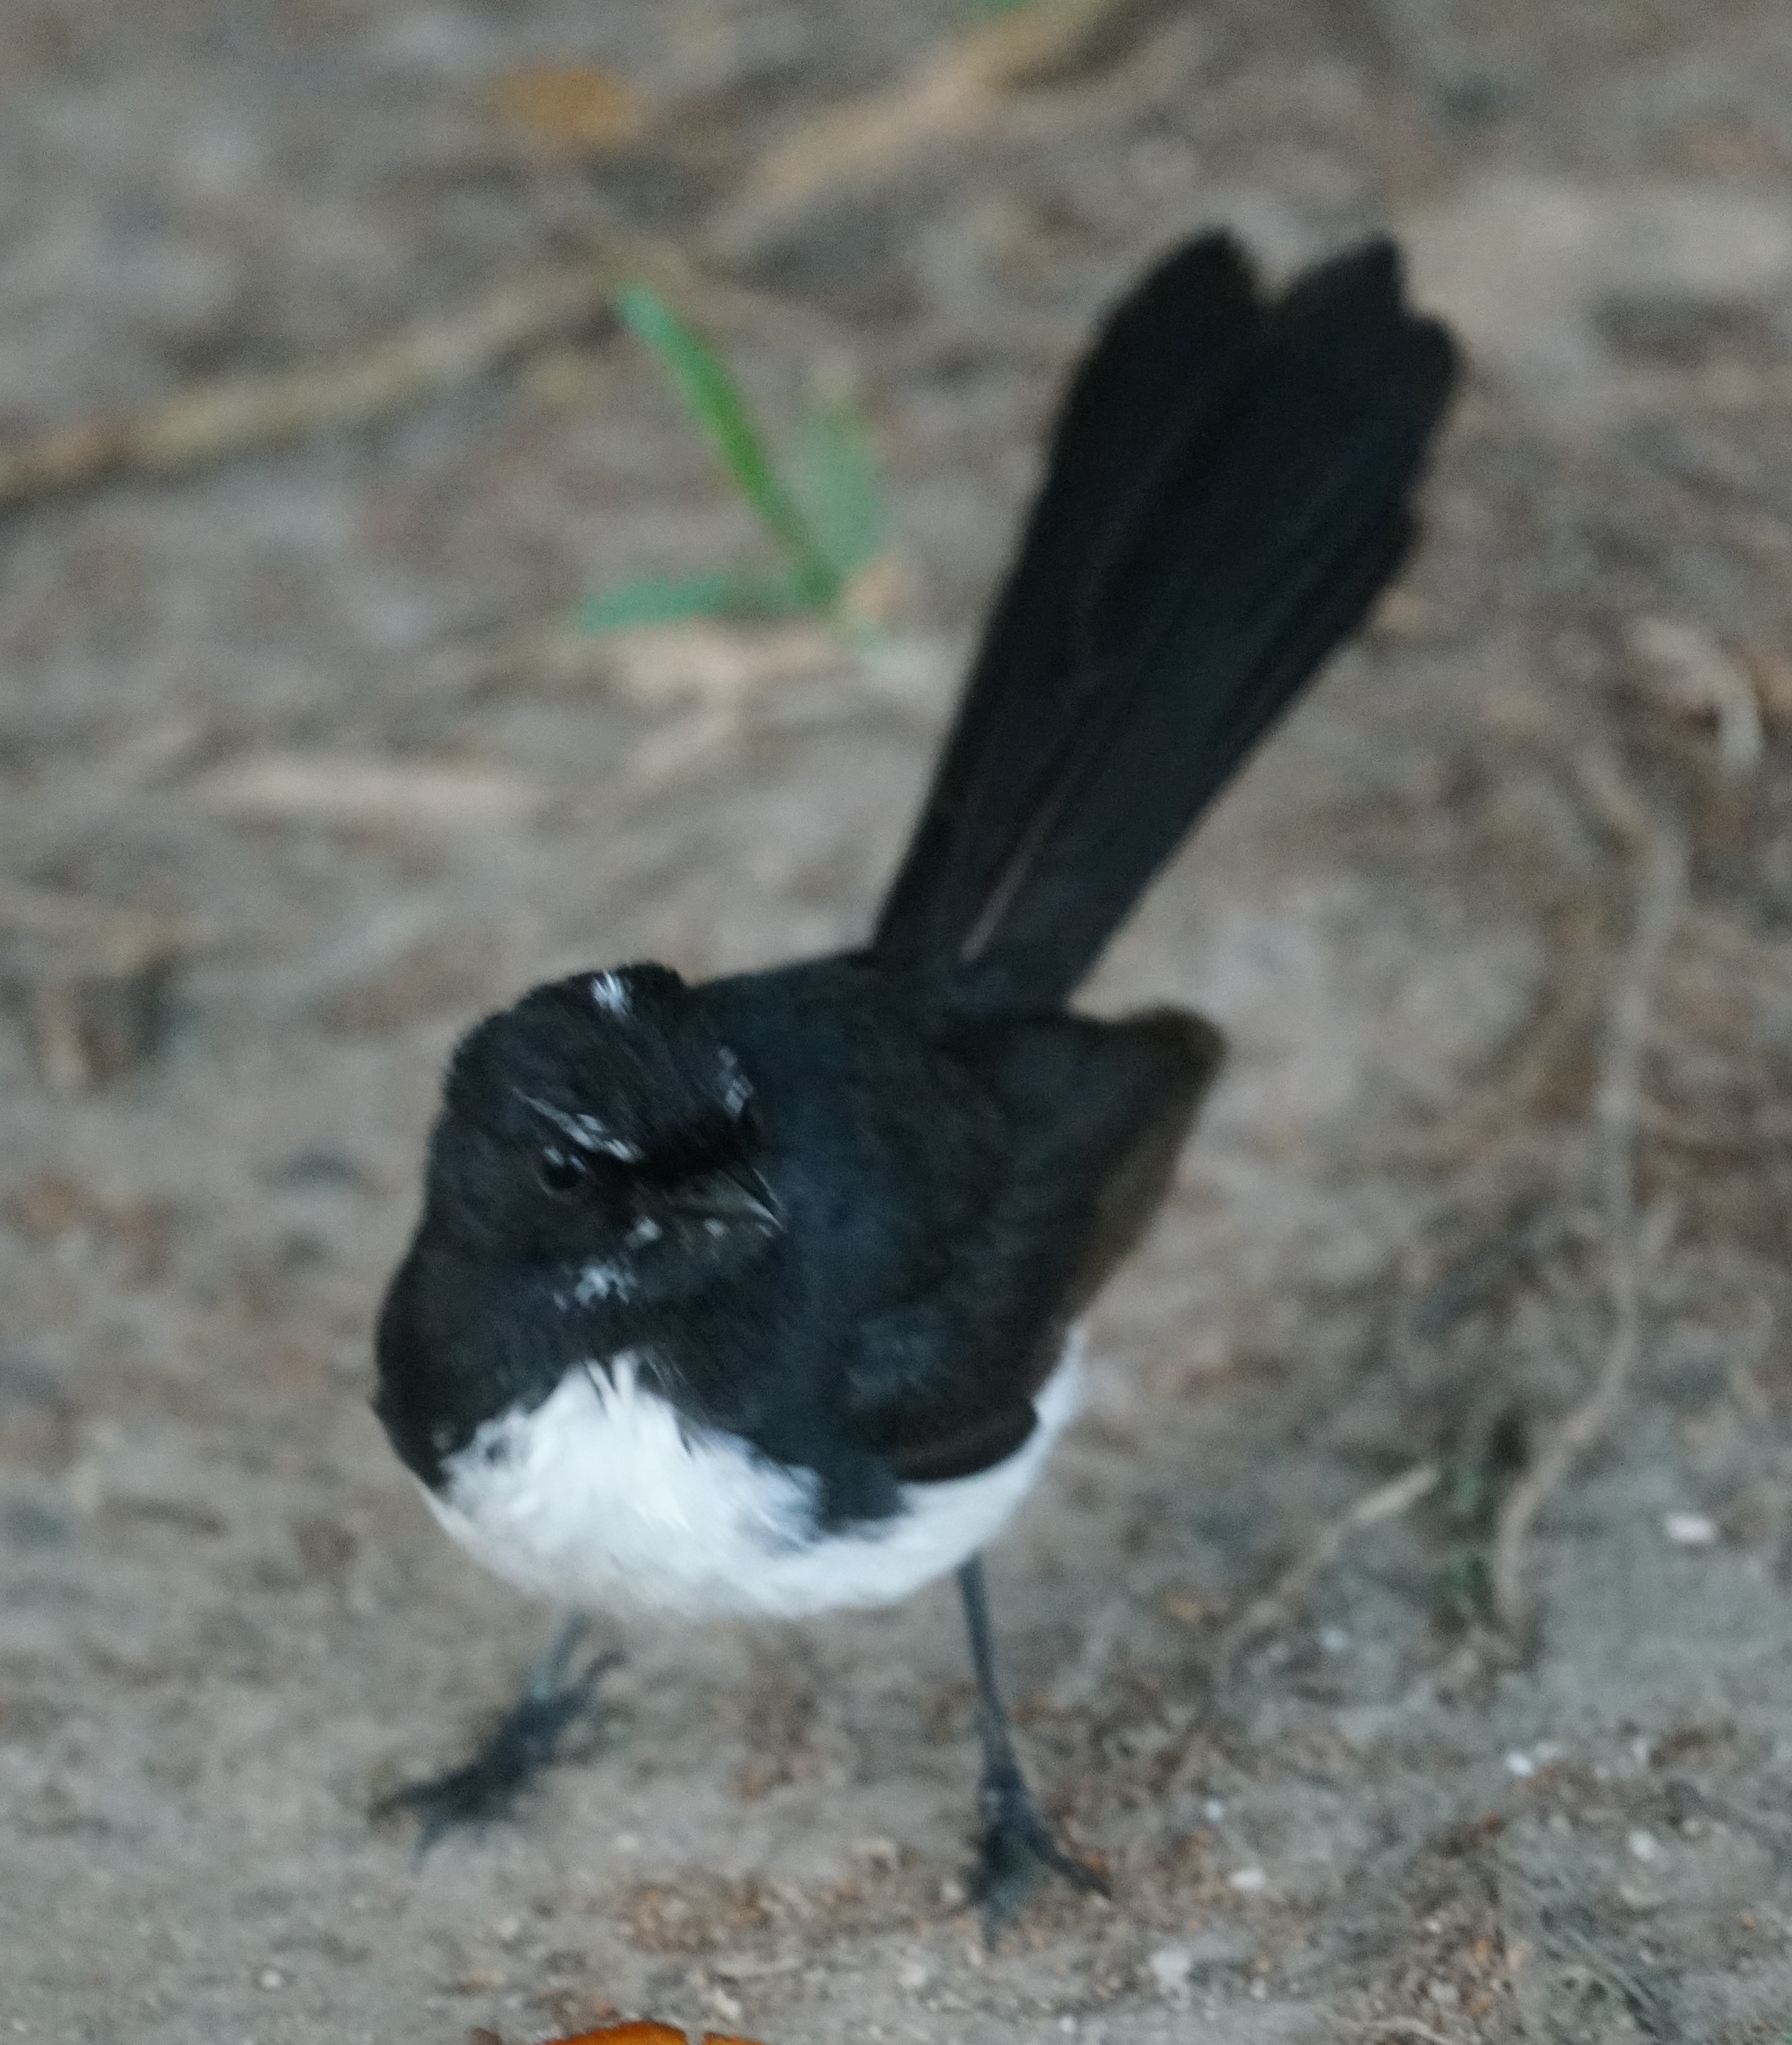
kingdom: Animalia
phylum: Chordata
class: Aves
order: Passeriformes
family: Rhipiduridae
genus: Rhipidura
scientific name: Rhipidura leucophrys
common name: Willie wagtail
